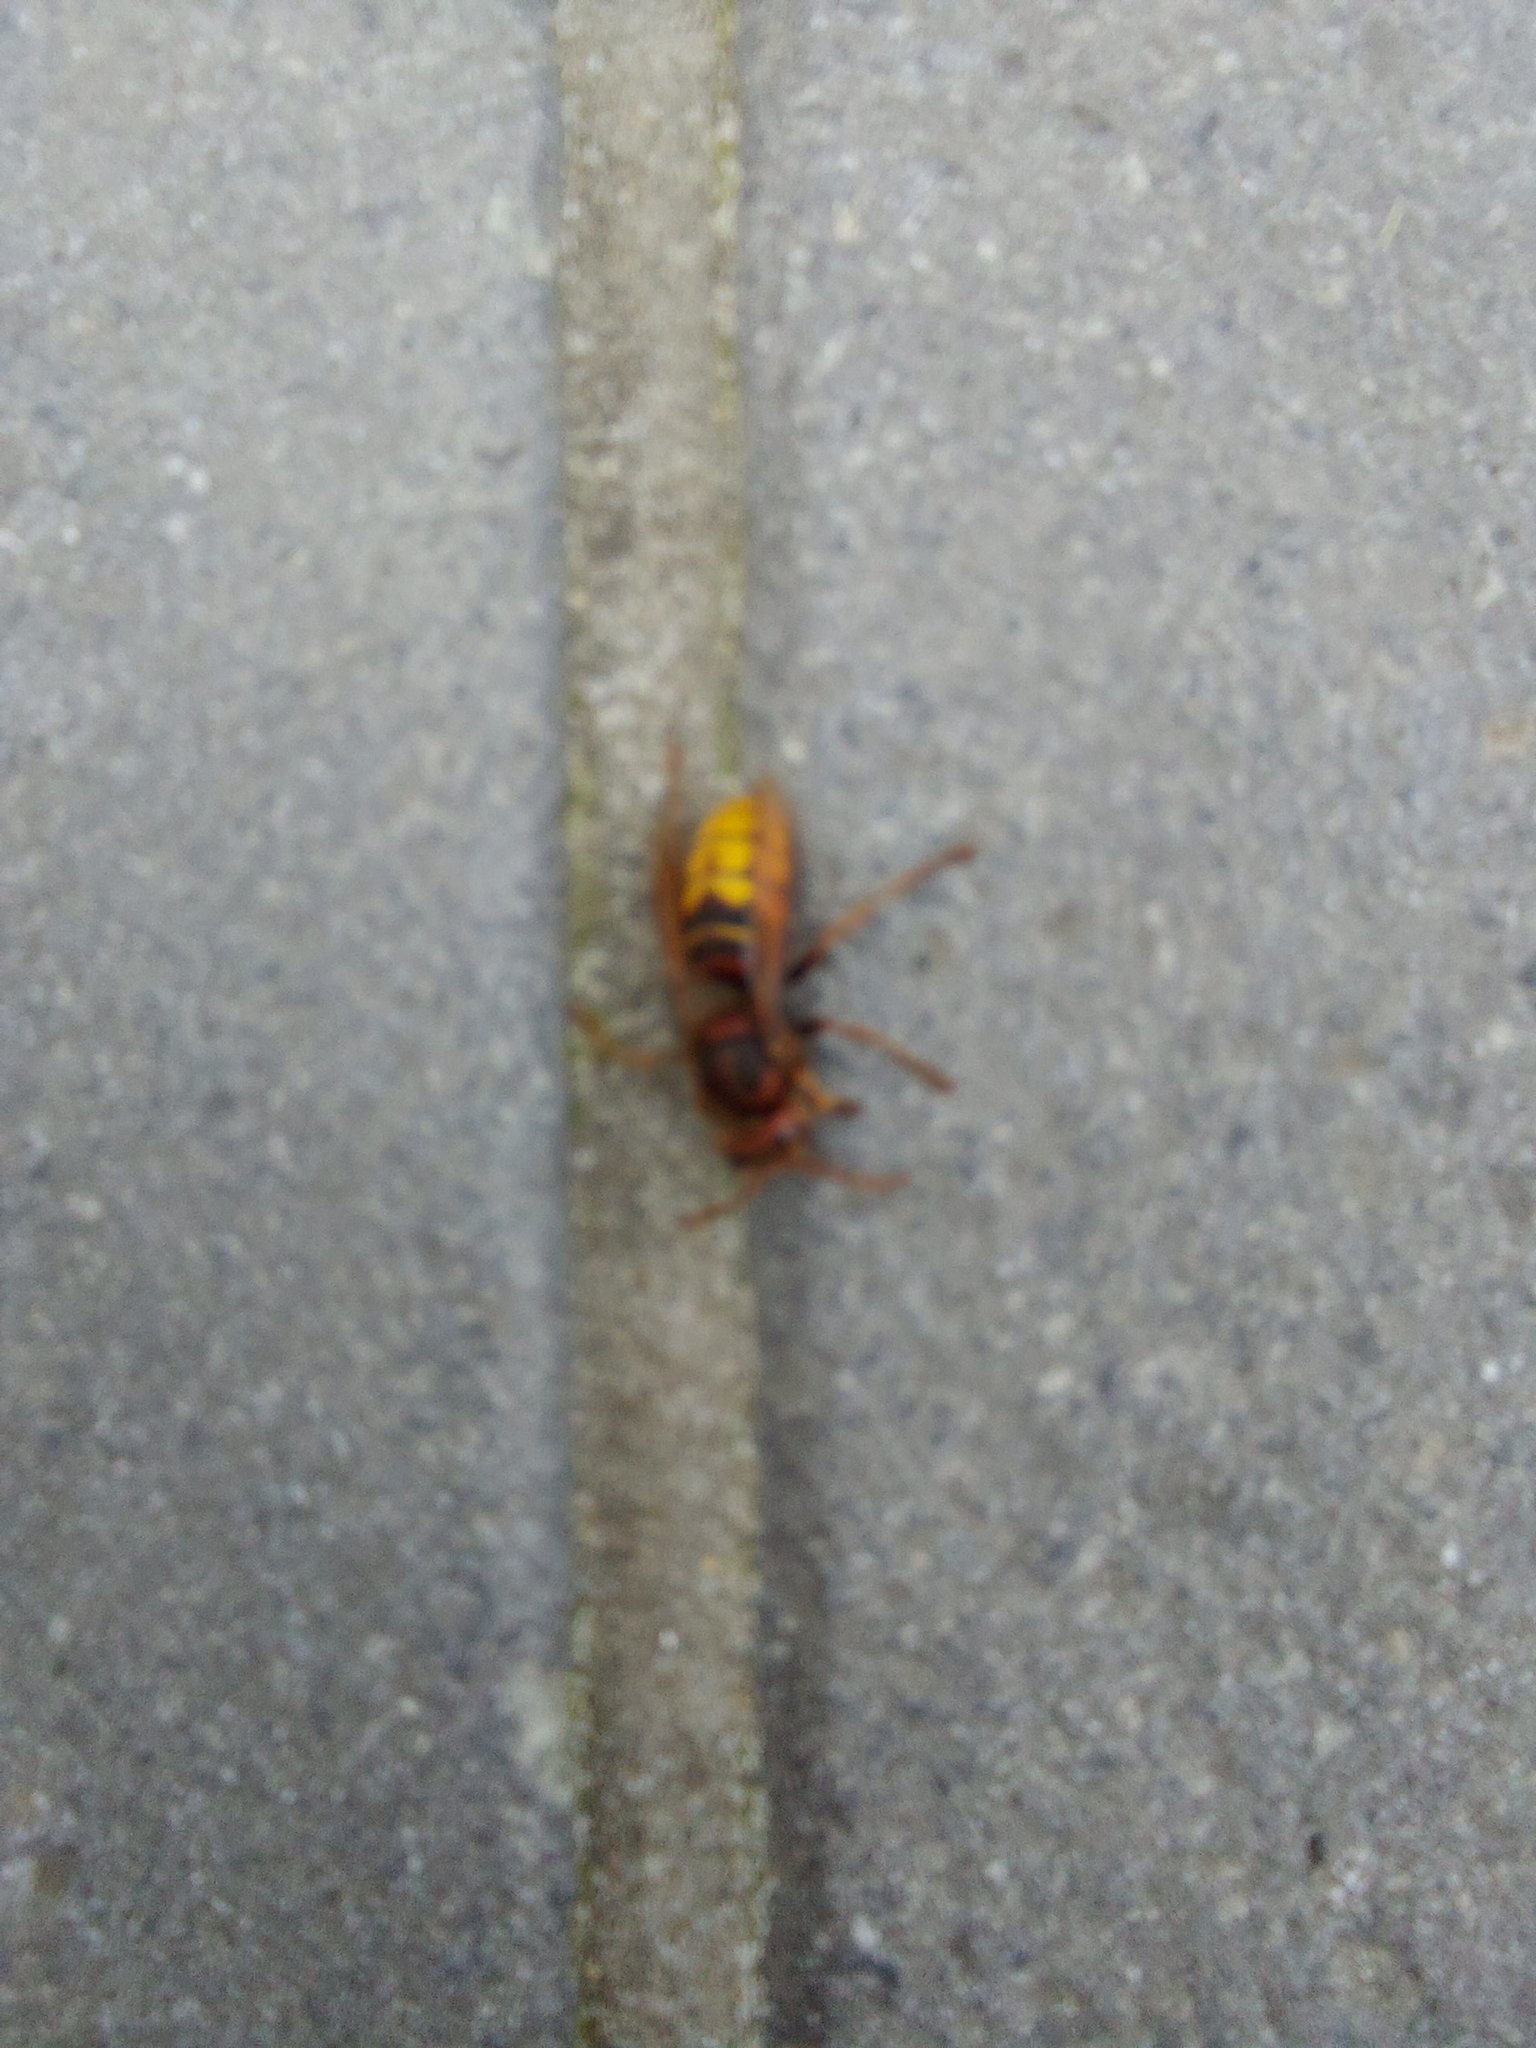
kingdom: Animalia
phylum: Arthropoda
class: Insecta
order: Hymenoptera
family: Vespidae
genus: Vespa
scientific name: Vespa crabro
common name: Hornet
